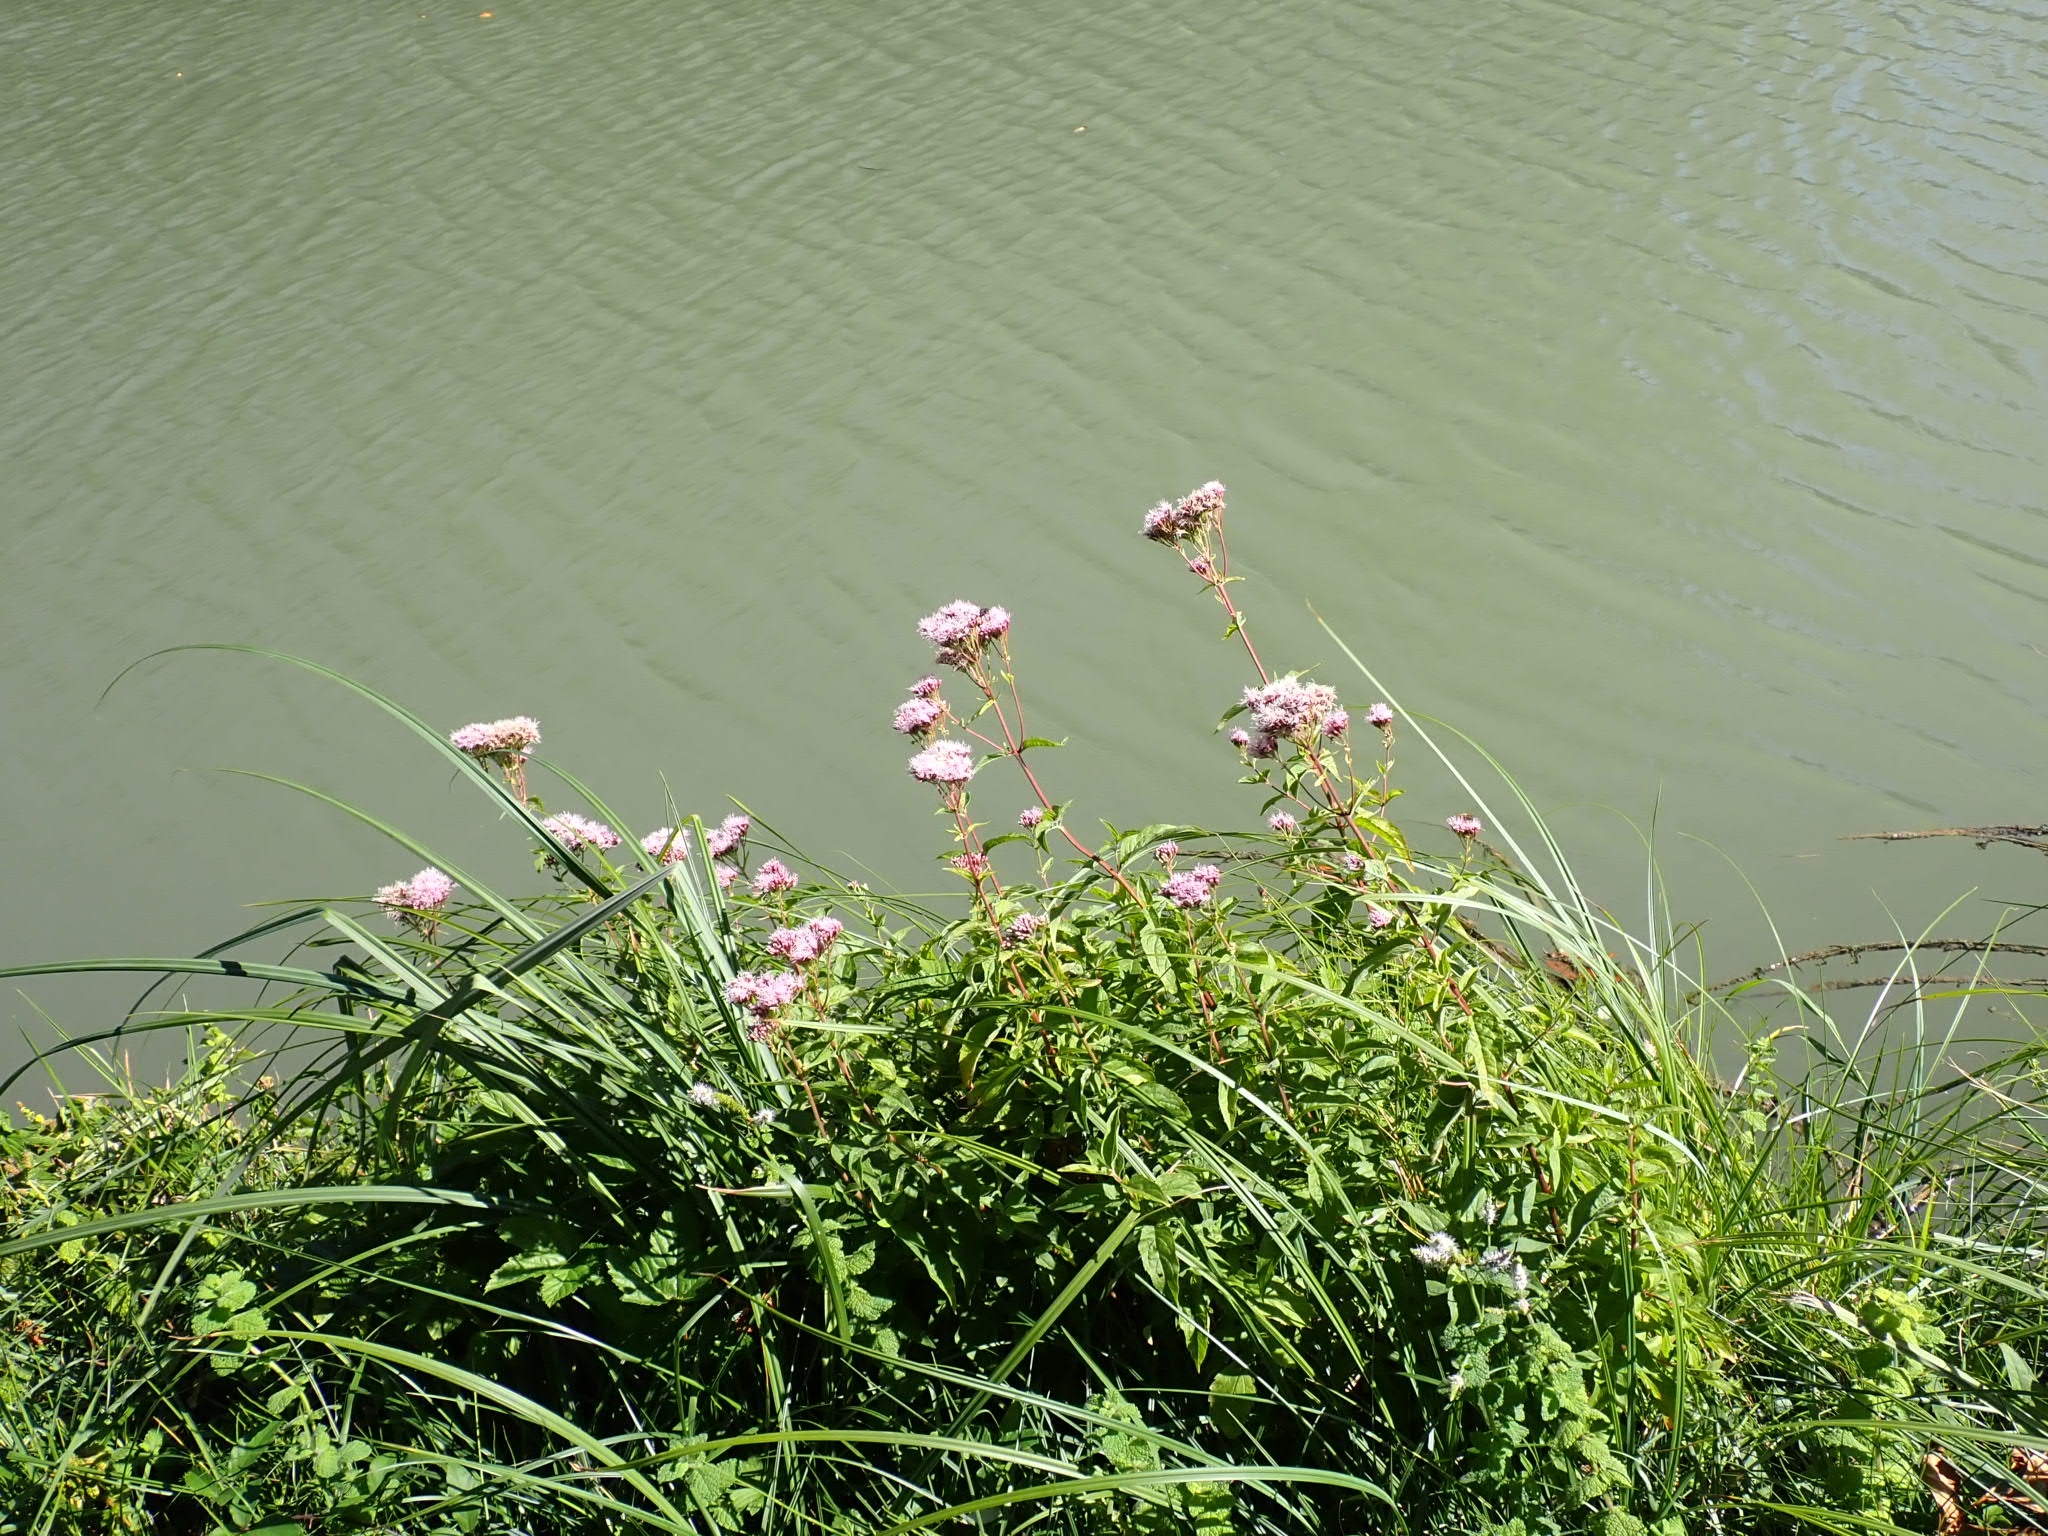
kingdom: Plantae
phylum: Tracheophyta
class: Magnoliopsida
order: Asterales
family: Asteraceae
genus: Eupatorium
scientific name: Eupatorium cannabinum
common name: Hemp-agrimony
